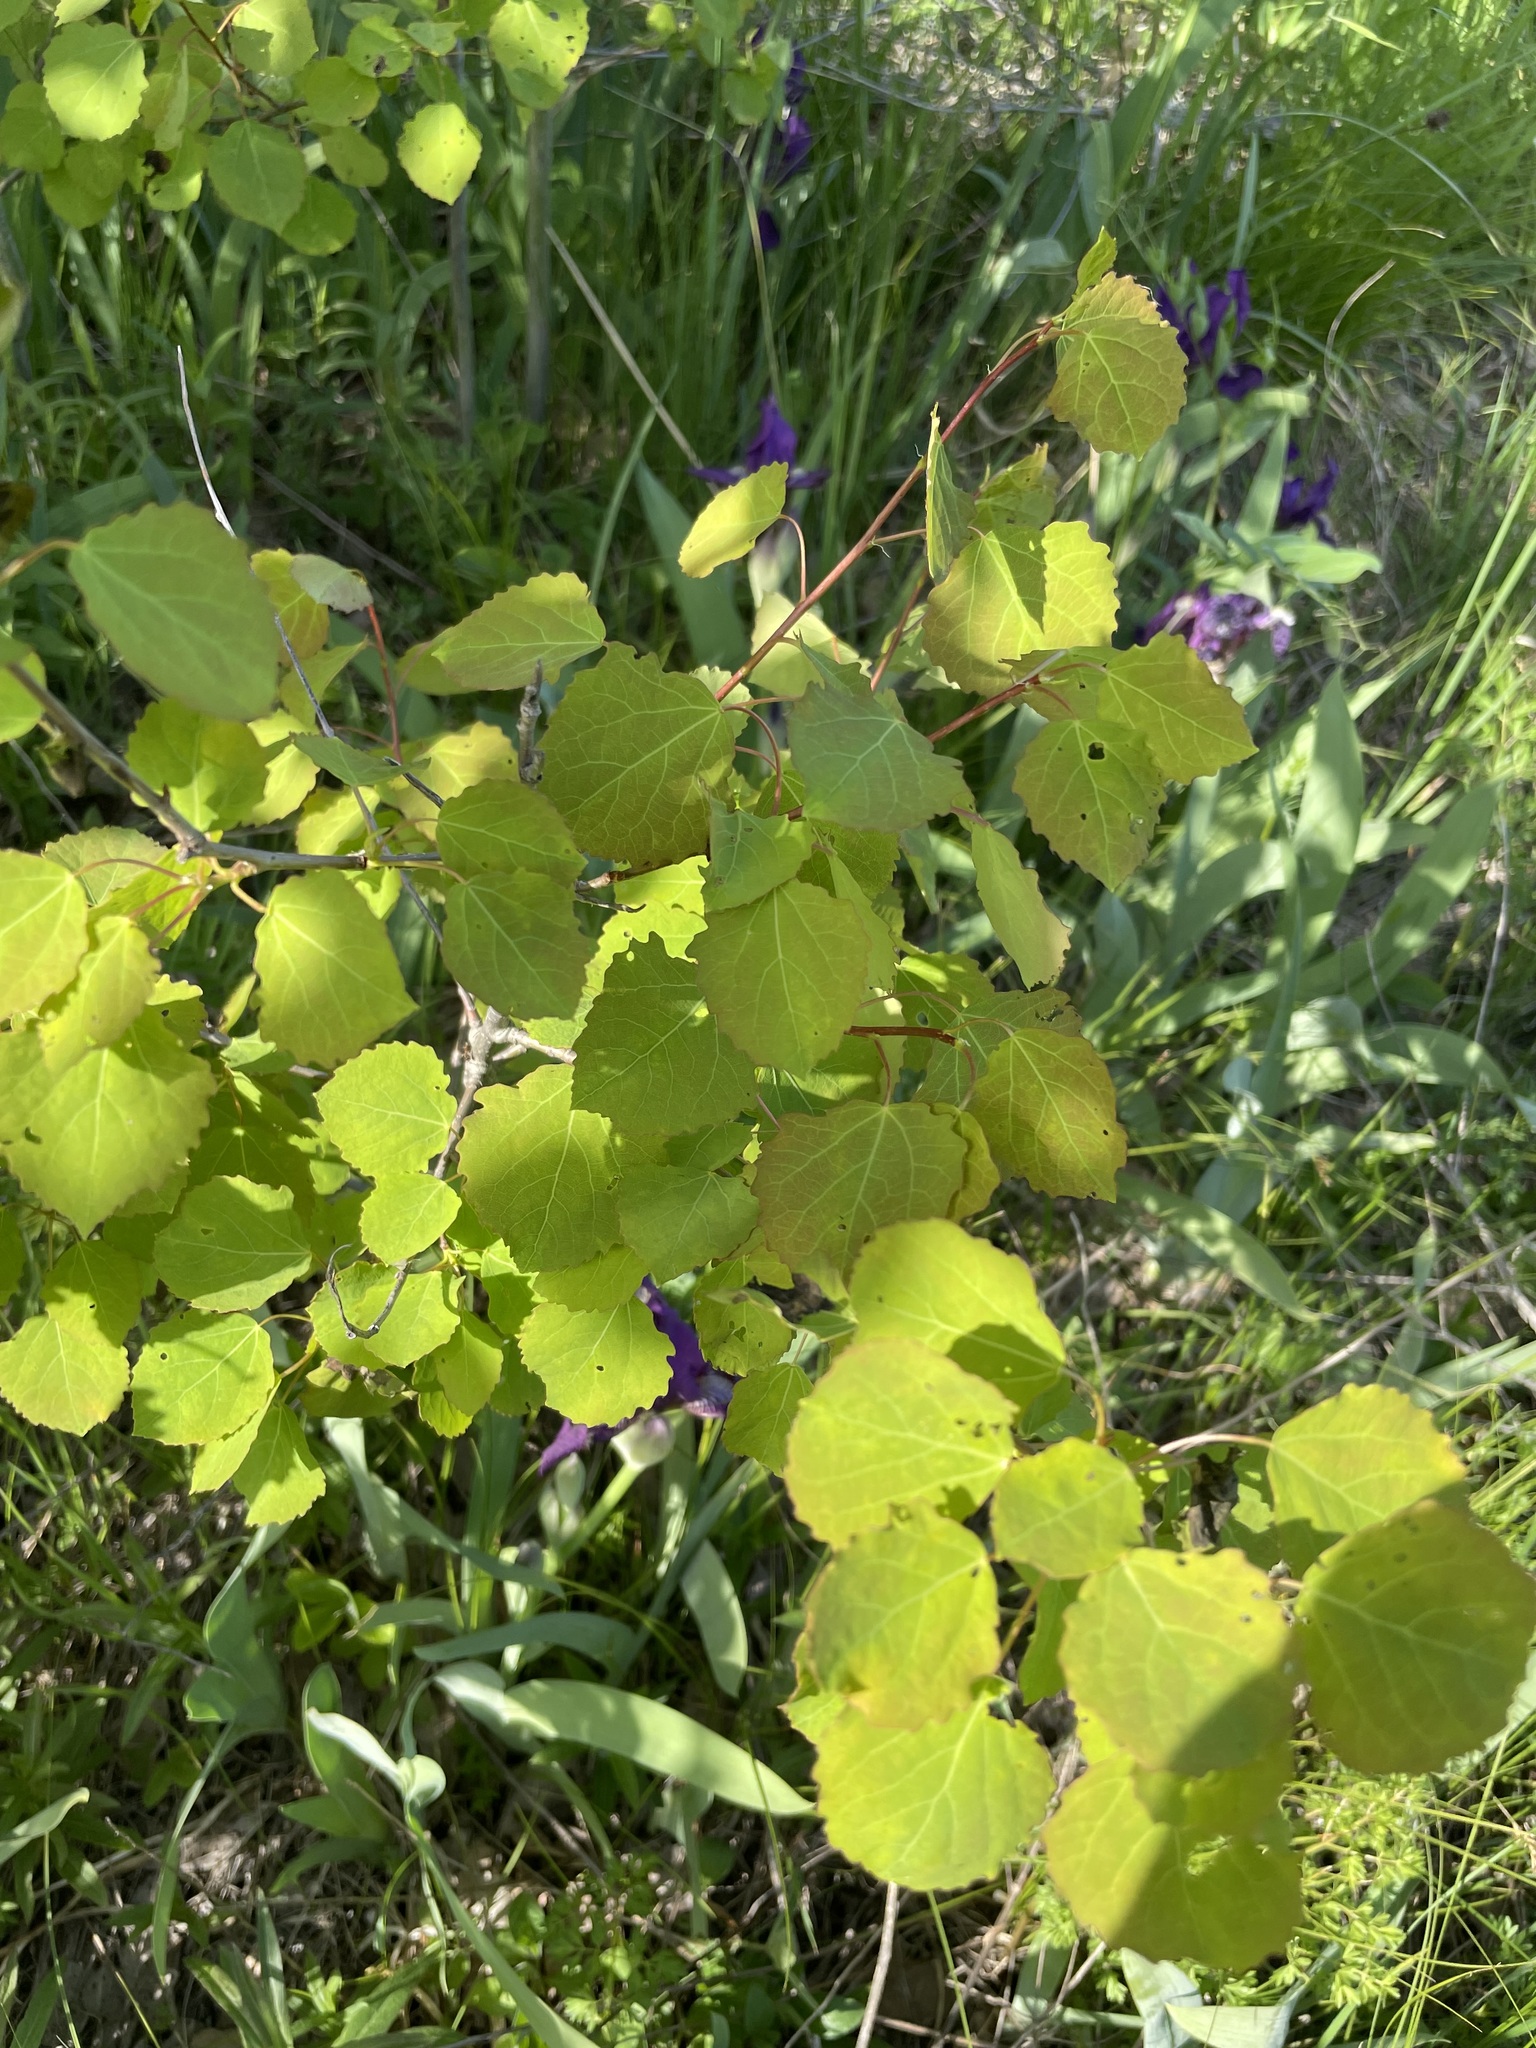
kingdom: Plantae
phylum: Tracheophyta
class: Magnoliopsida
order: Malpighiales
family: Salicaceae
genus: Populus
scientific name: Populus tremula
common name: European aspen
